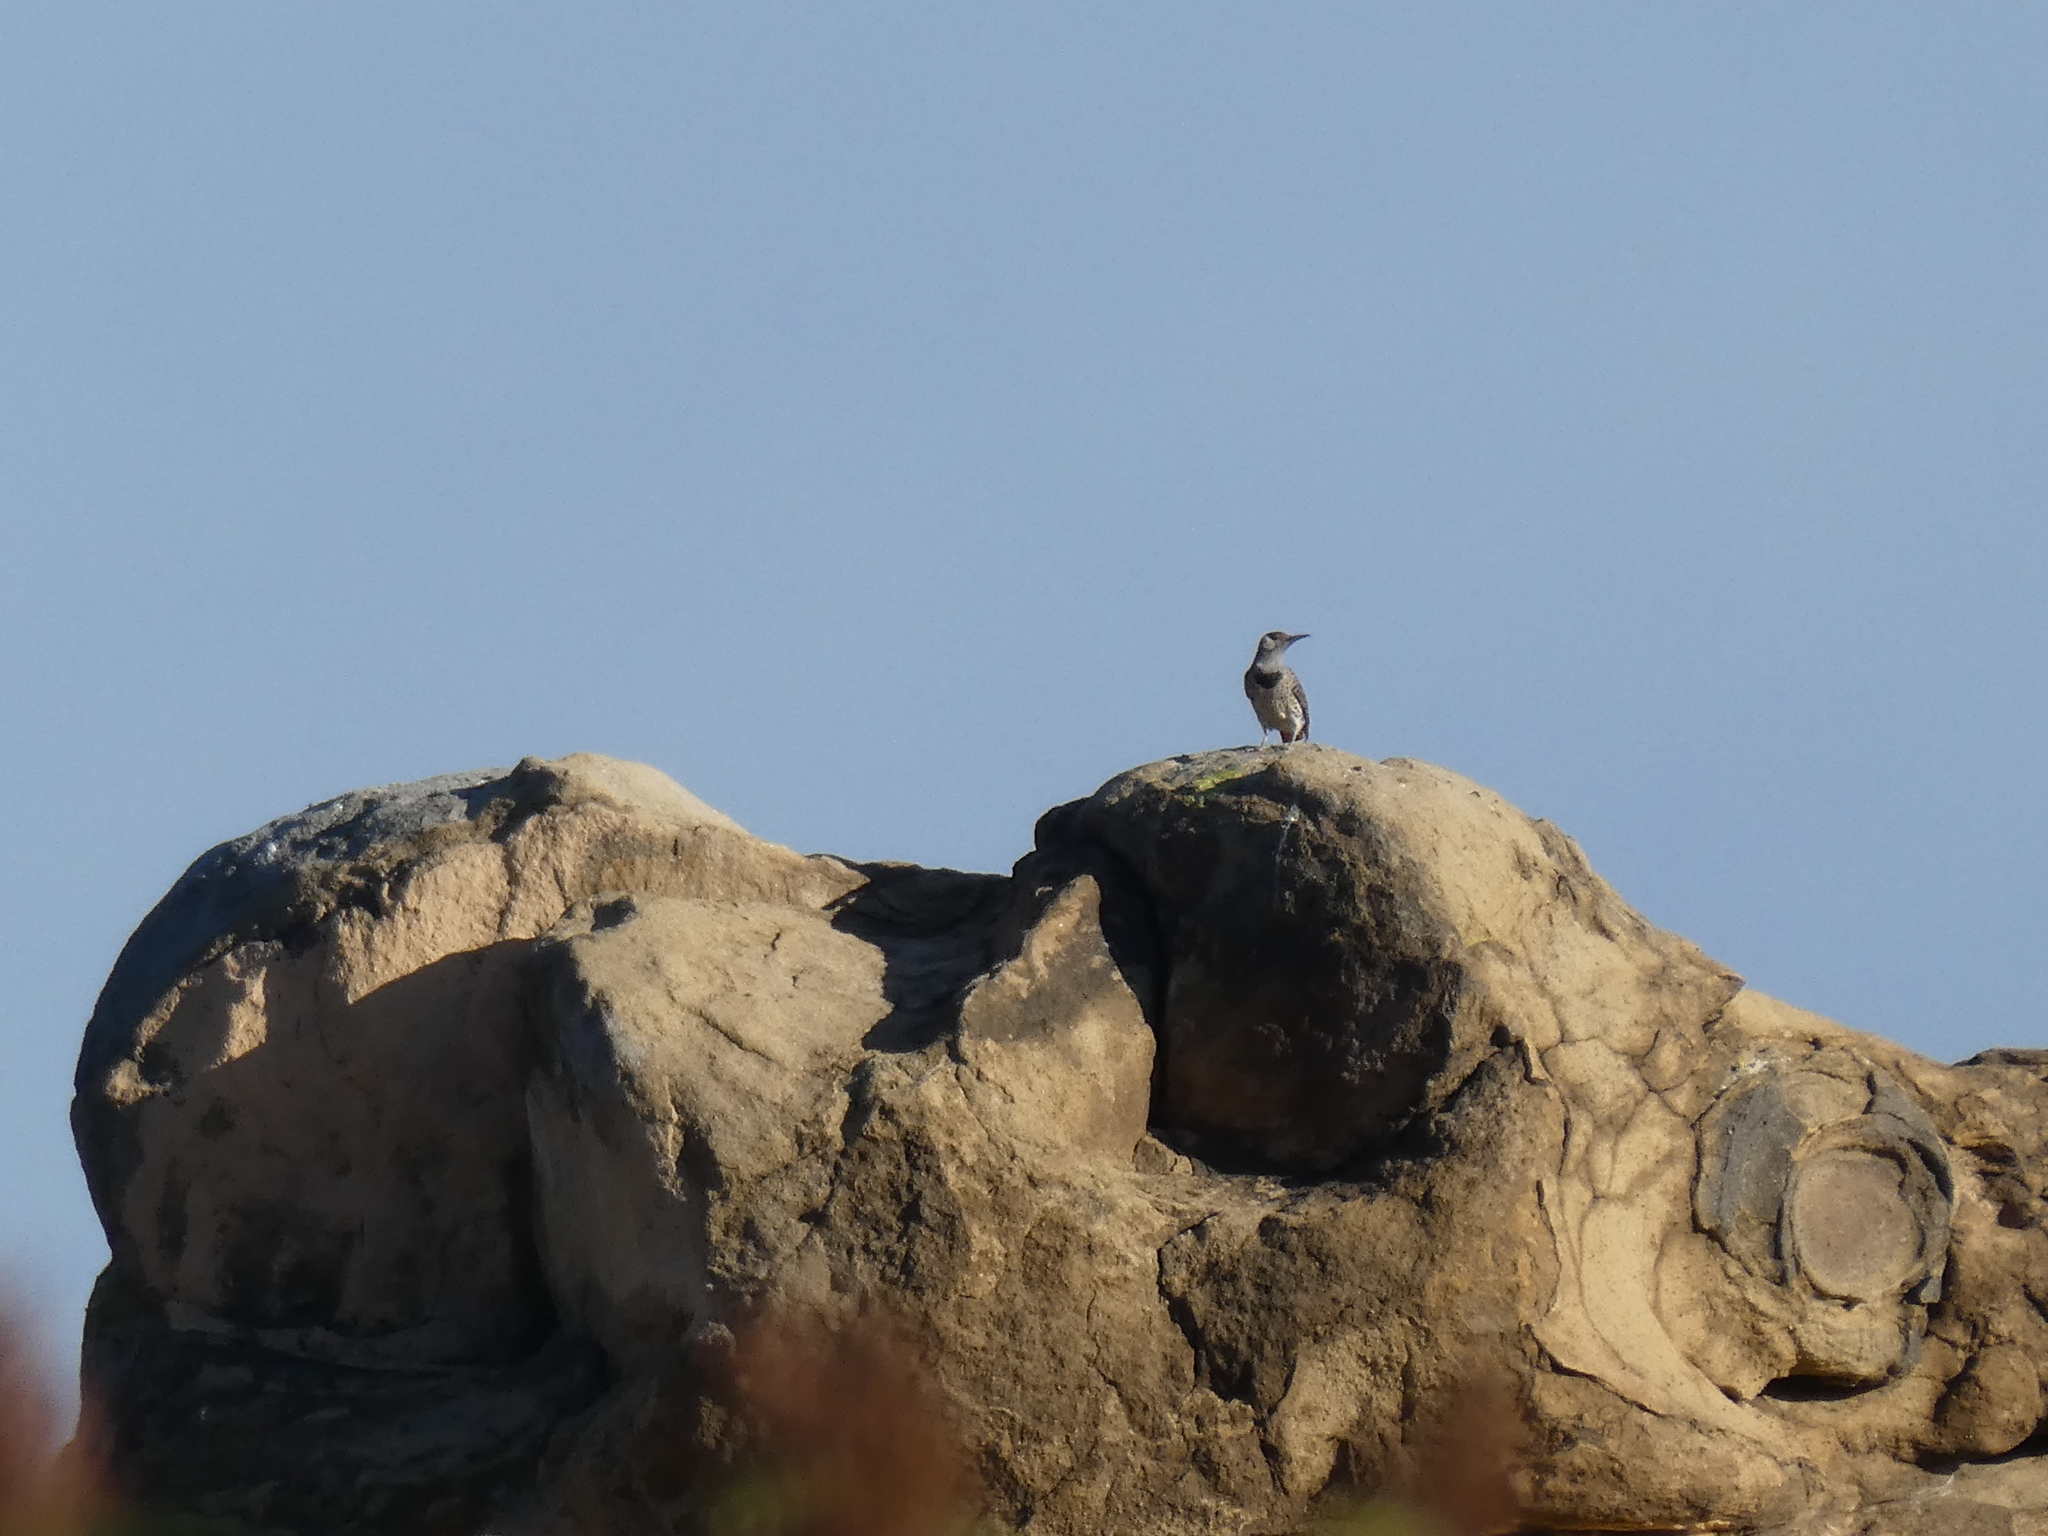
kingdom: Animalia
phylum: Chordata
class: Aves
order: Piciformes
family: Picidae
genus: Colaptes
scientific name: Colaptes auratus
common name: Northern flicker
